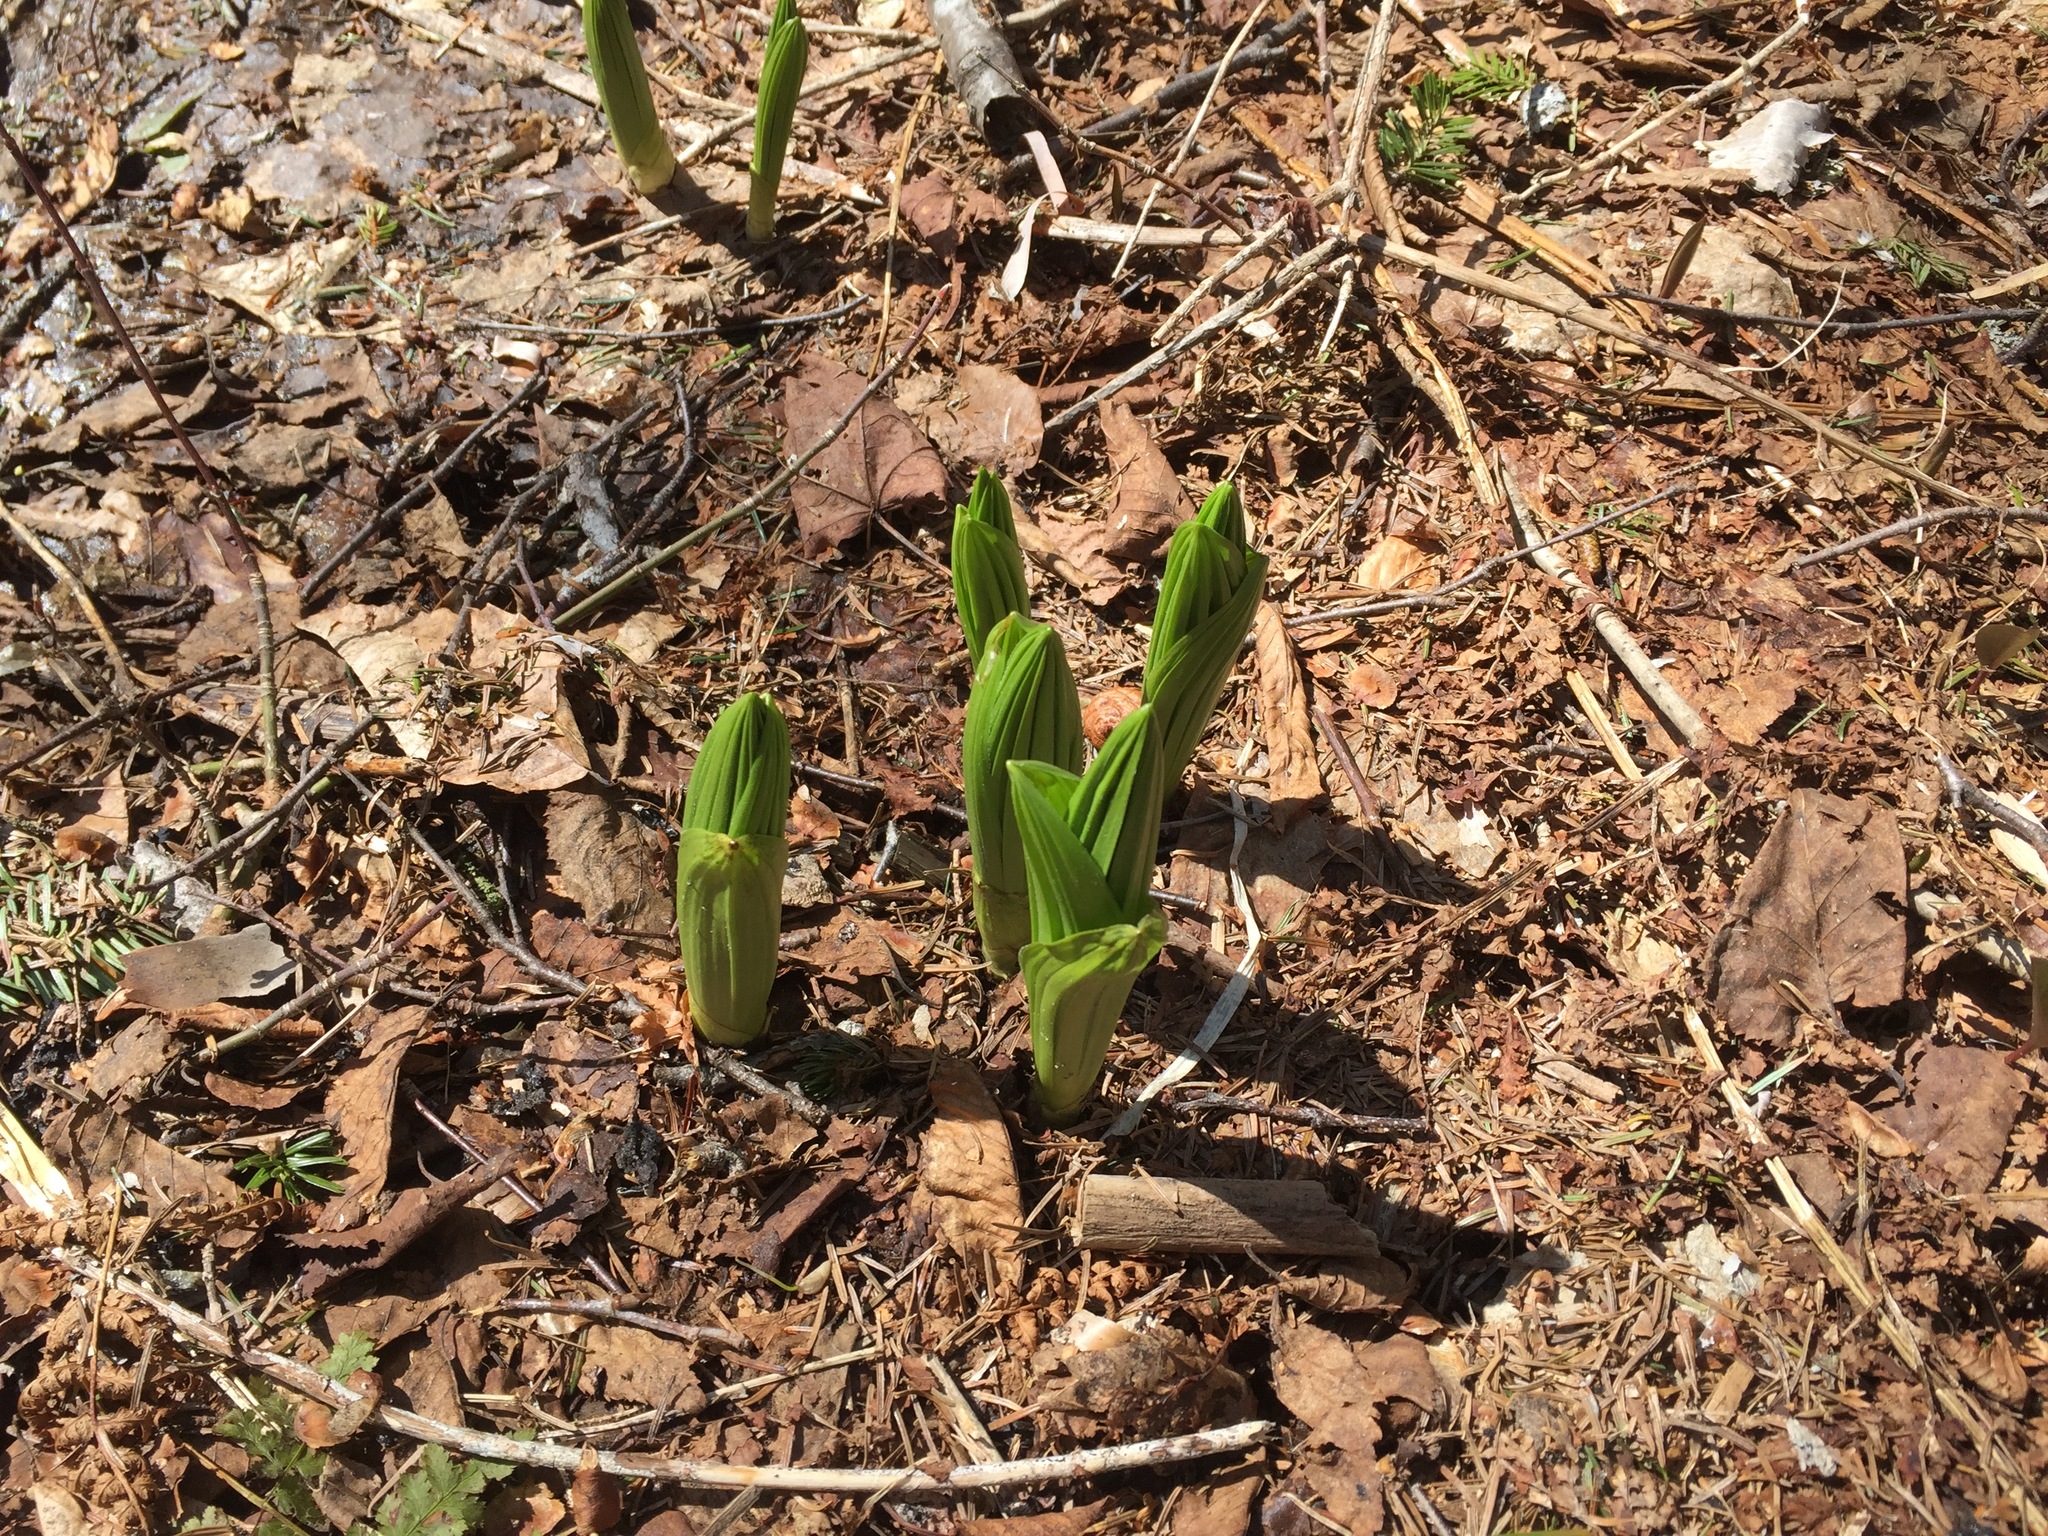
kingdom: Plantae
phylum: Tracheophyta
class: Liliopsida
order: Liliales
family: Melanthiaceae
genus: Veratrum
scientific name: Veratrum viride
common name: American false hellebore
